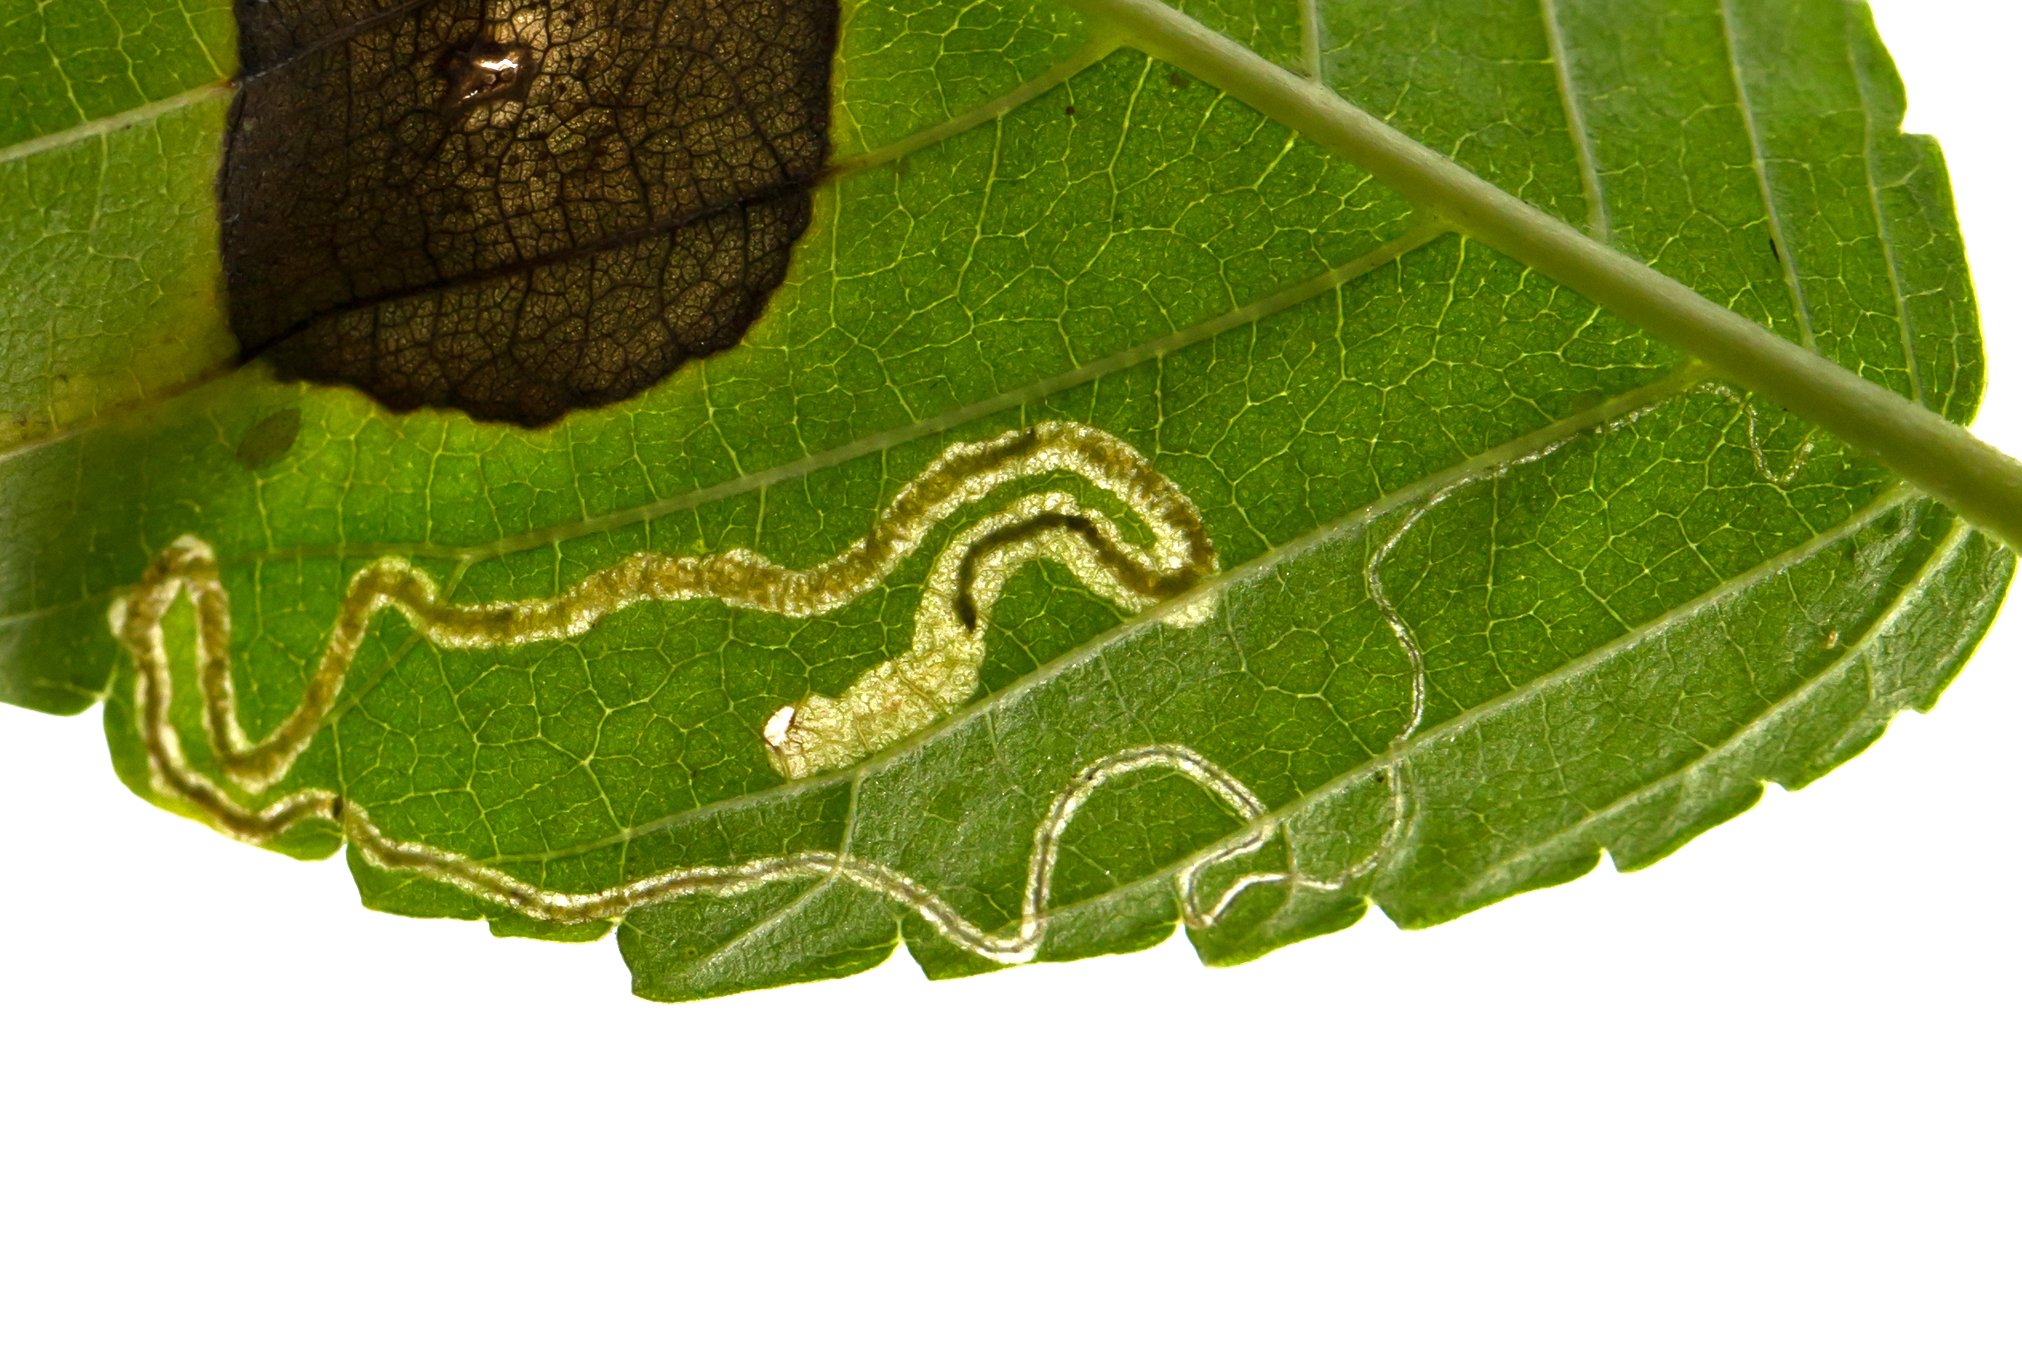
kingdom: Animalia
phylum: Arthropoda
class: Insecta
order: Lepidoptera
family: Nepticulidae
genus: Stigmella
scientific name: Stigmella multispicata
